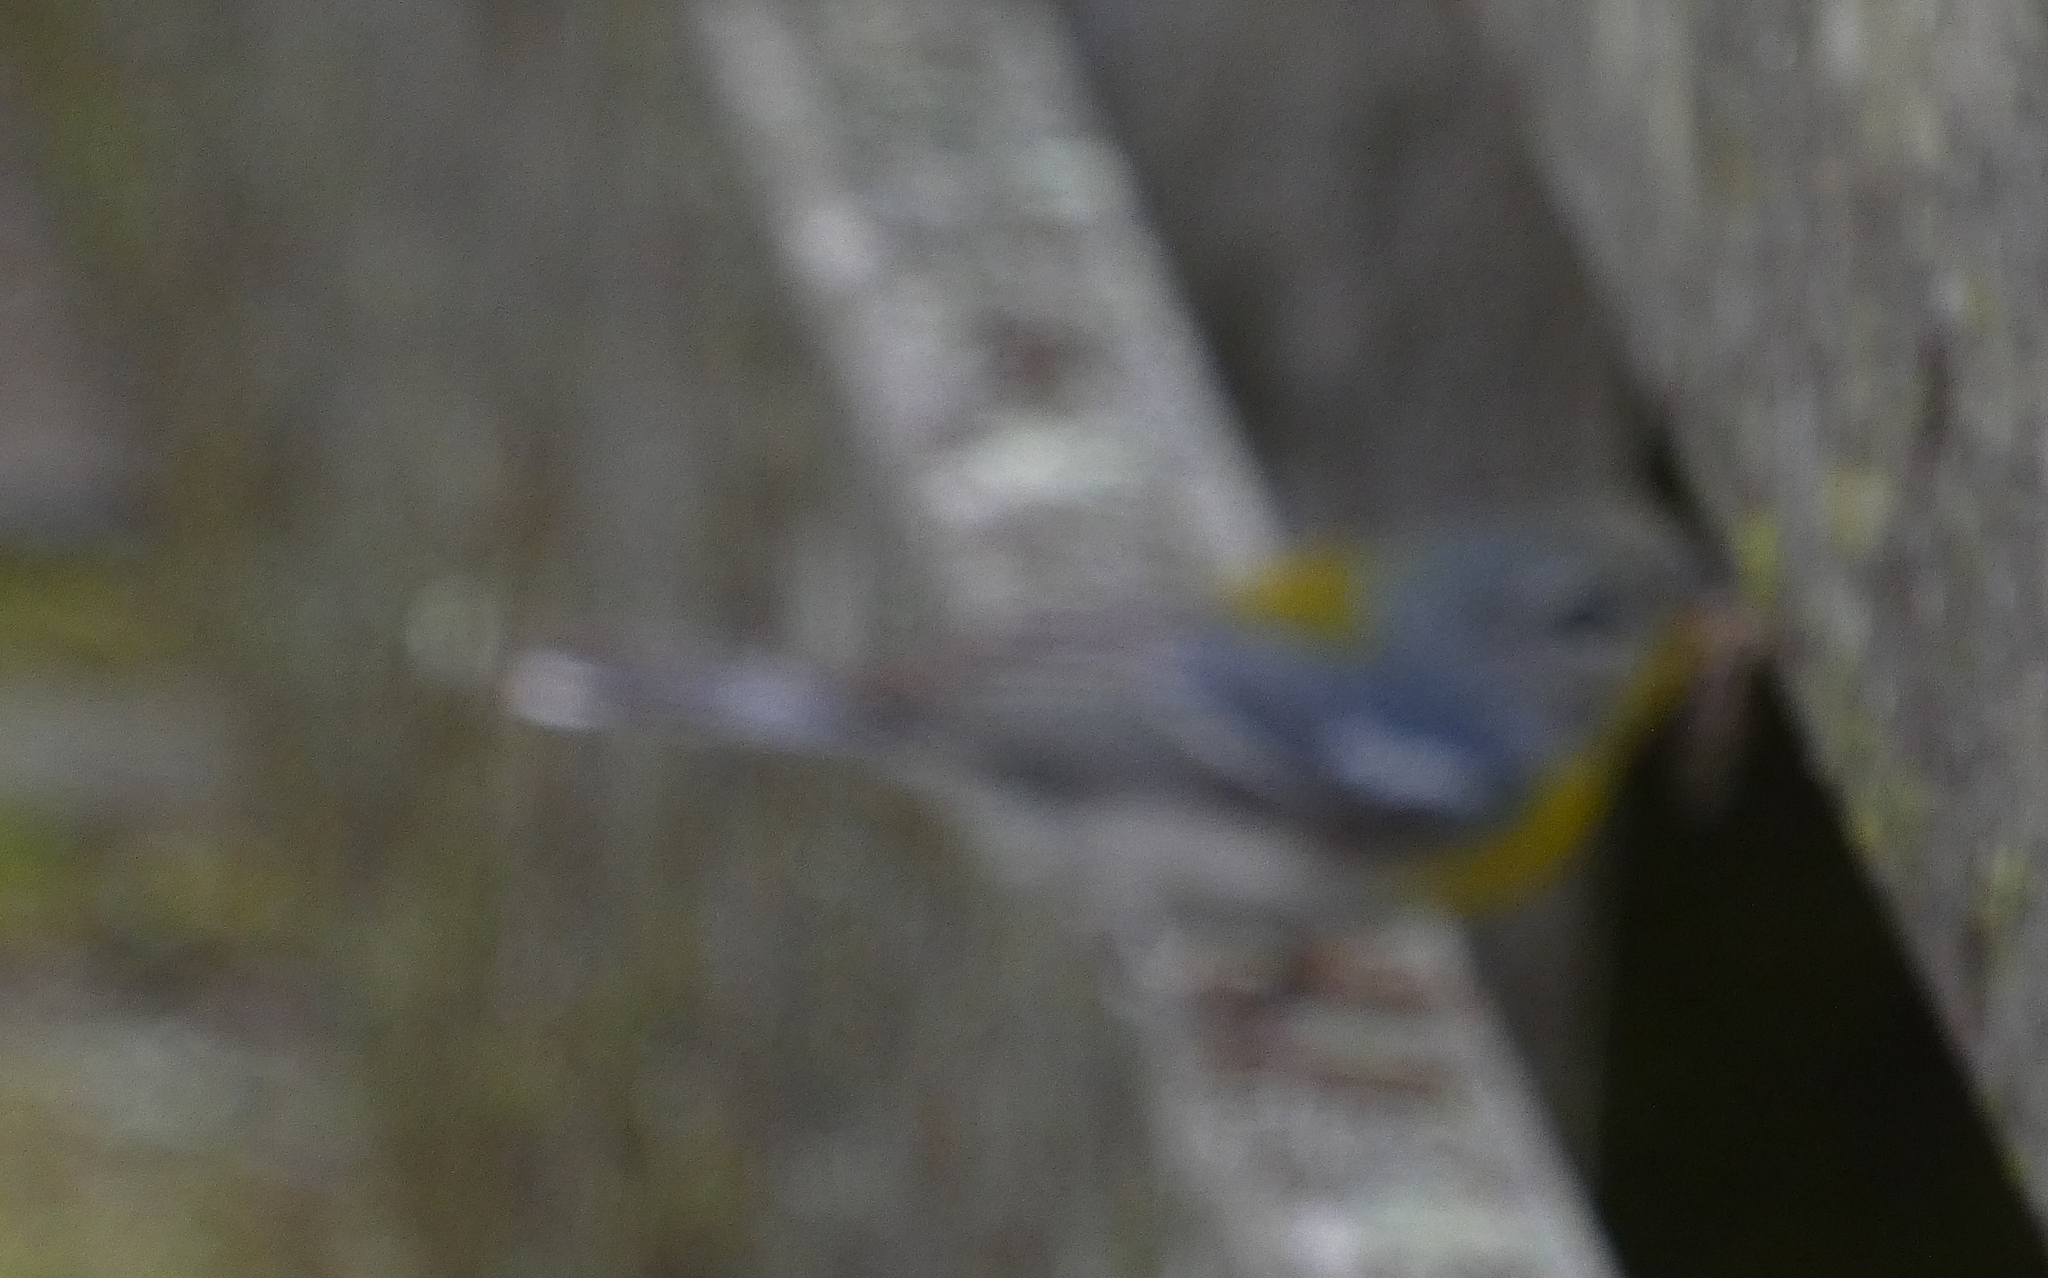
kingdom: Animalia
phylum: Chordata
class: Aves
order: Passeriformes
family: Parulidae
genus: Setophaga
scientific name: Setophaga americana
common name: Northern parula
